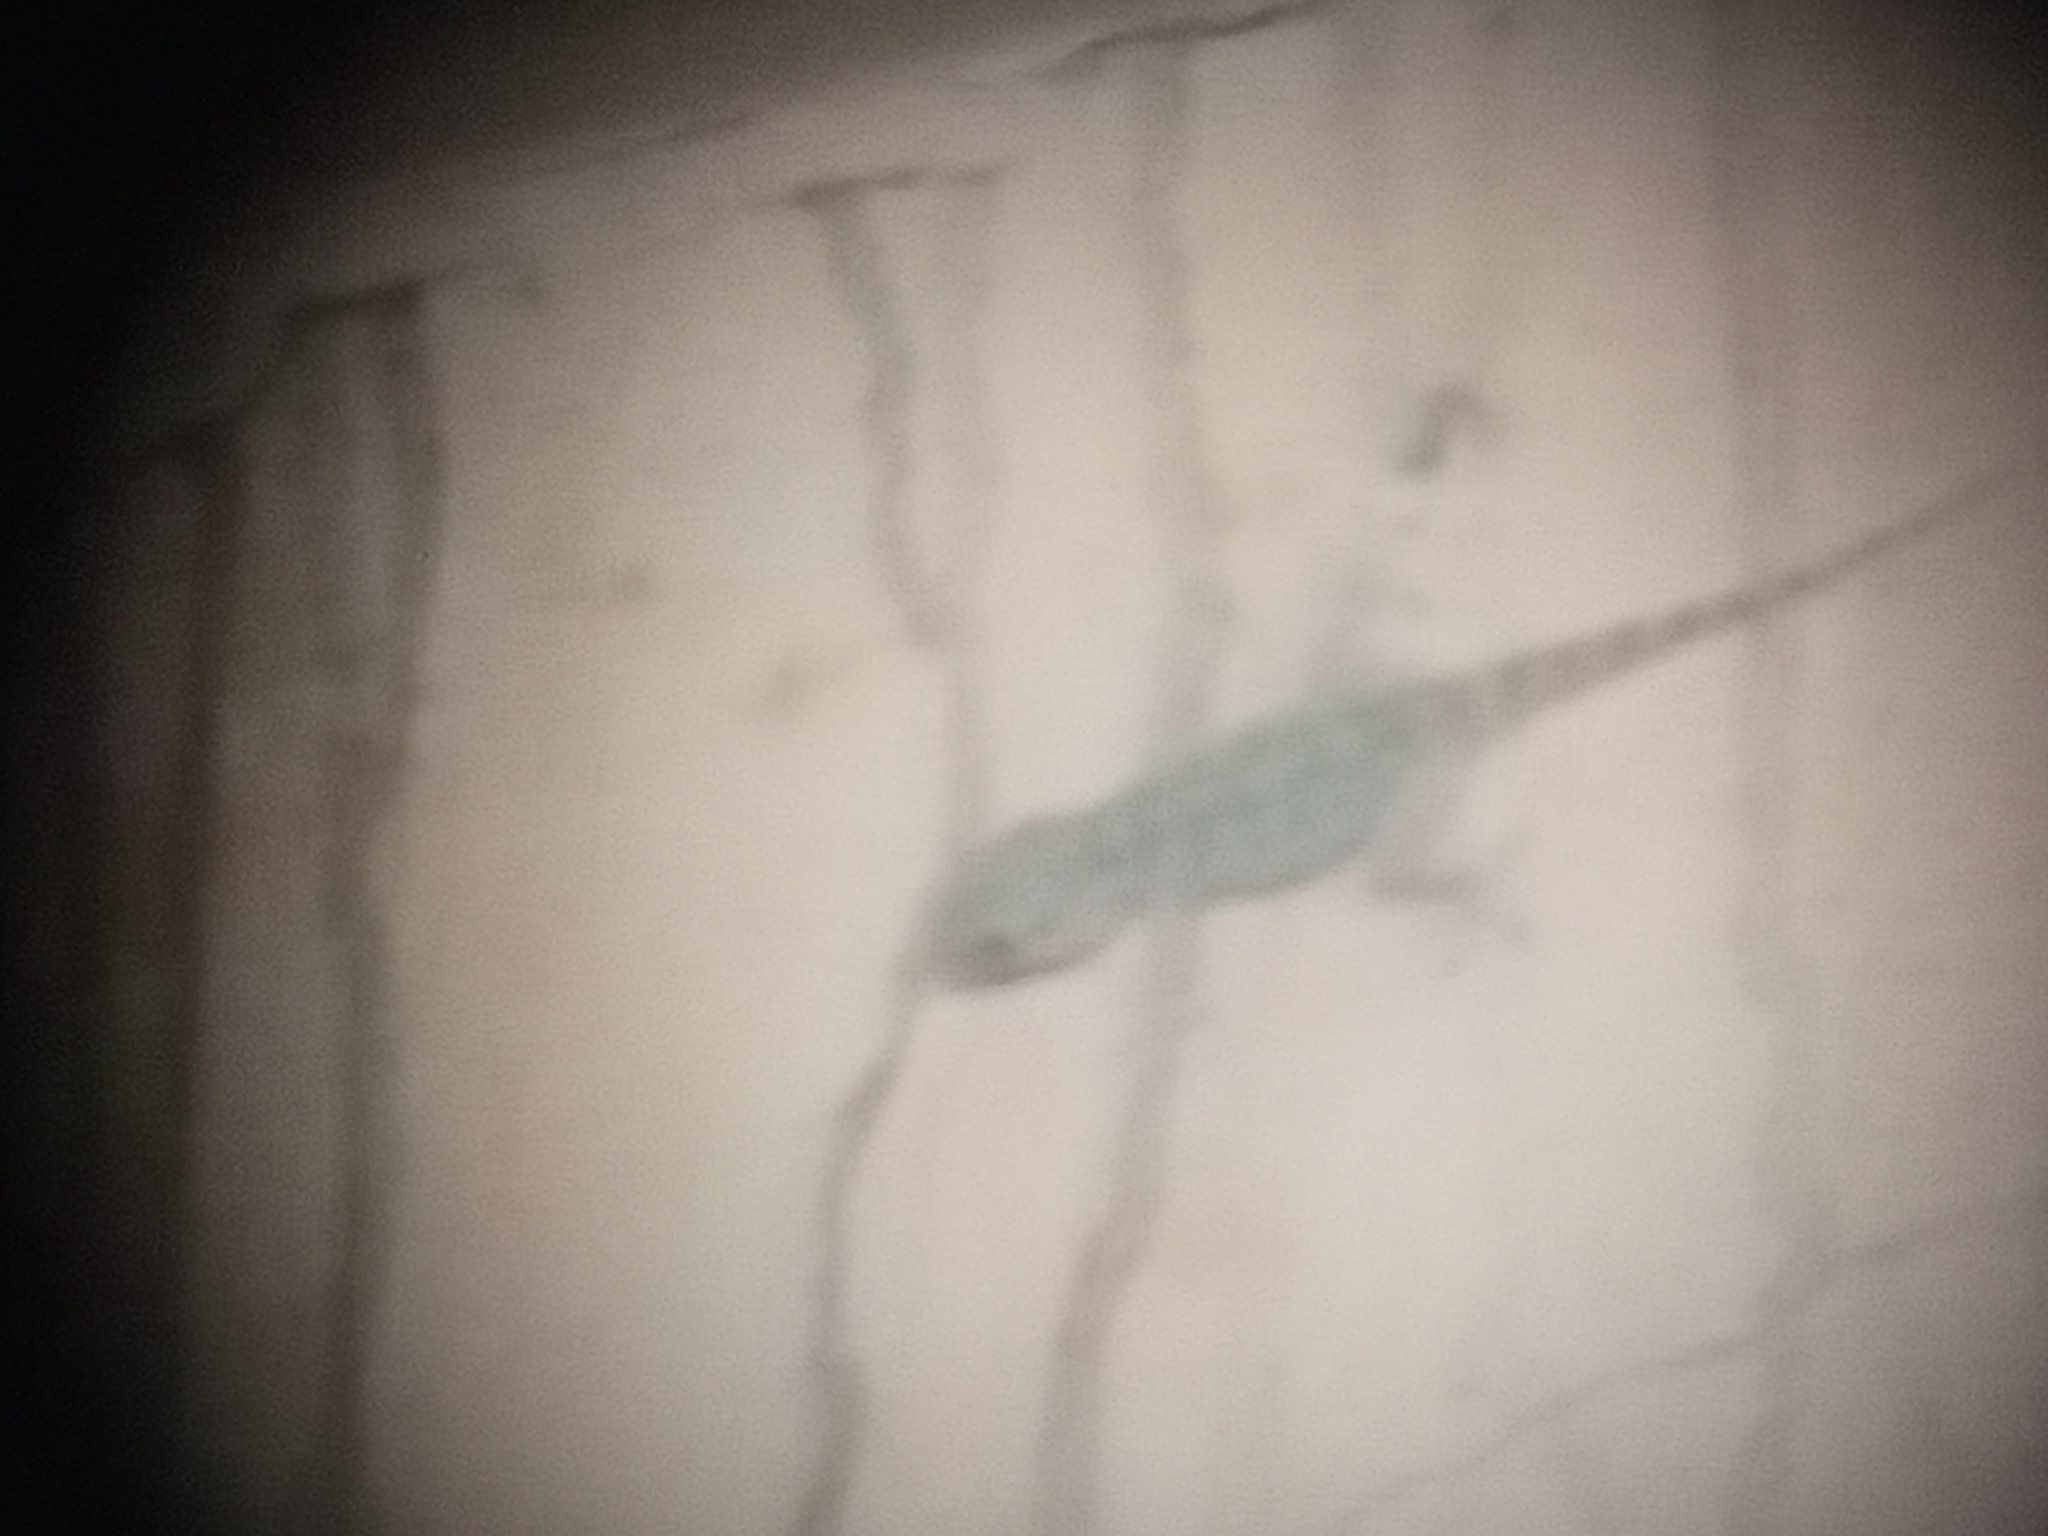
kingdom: Animalia
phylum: Chordata
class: Squamata
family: Phyllodactylidae
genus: Tarentola
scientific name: Tarentola mauritanica
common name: Moorish gecko
